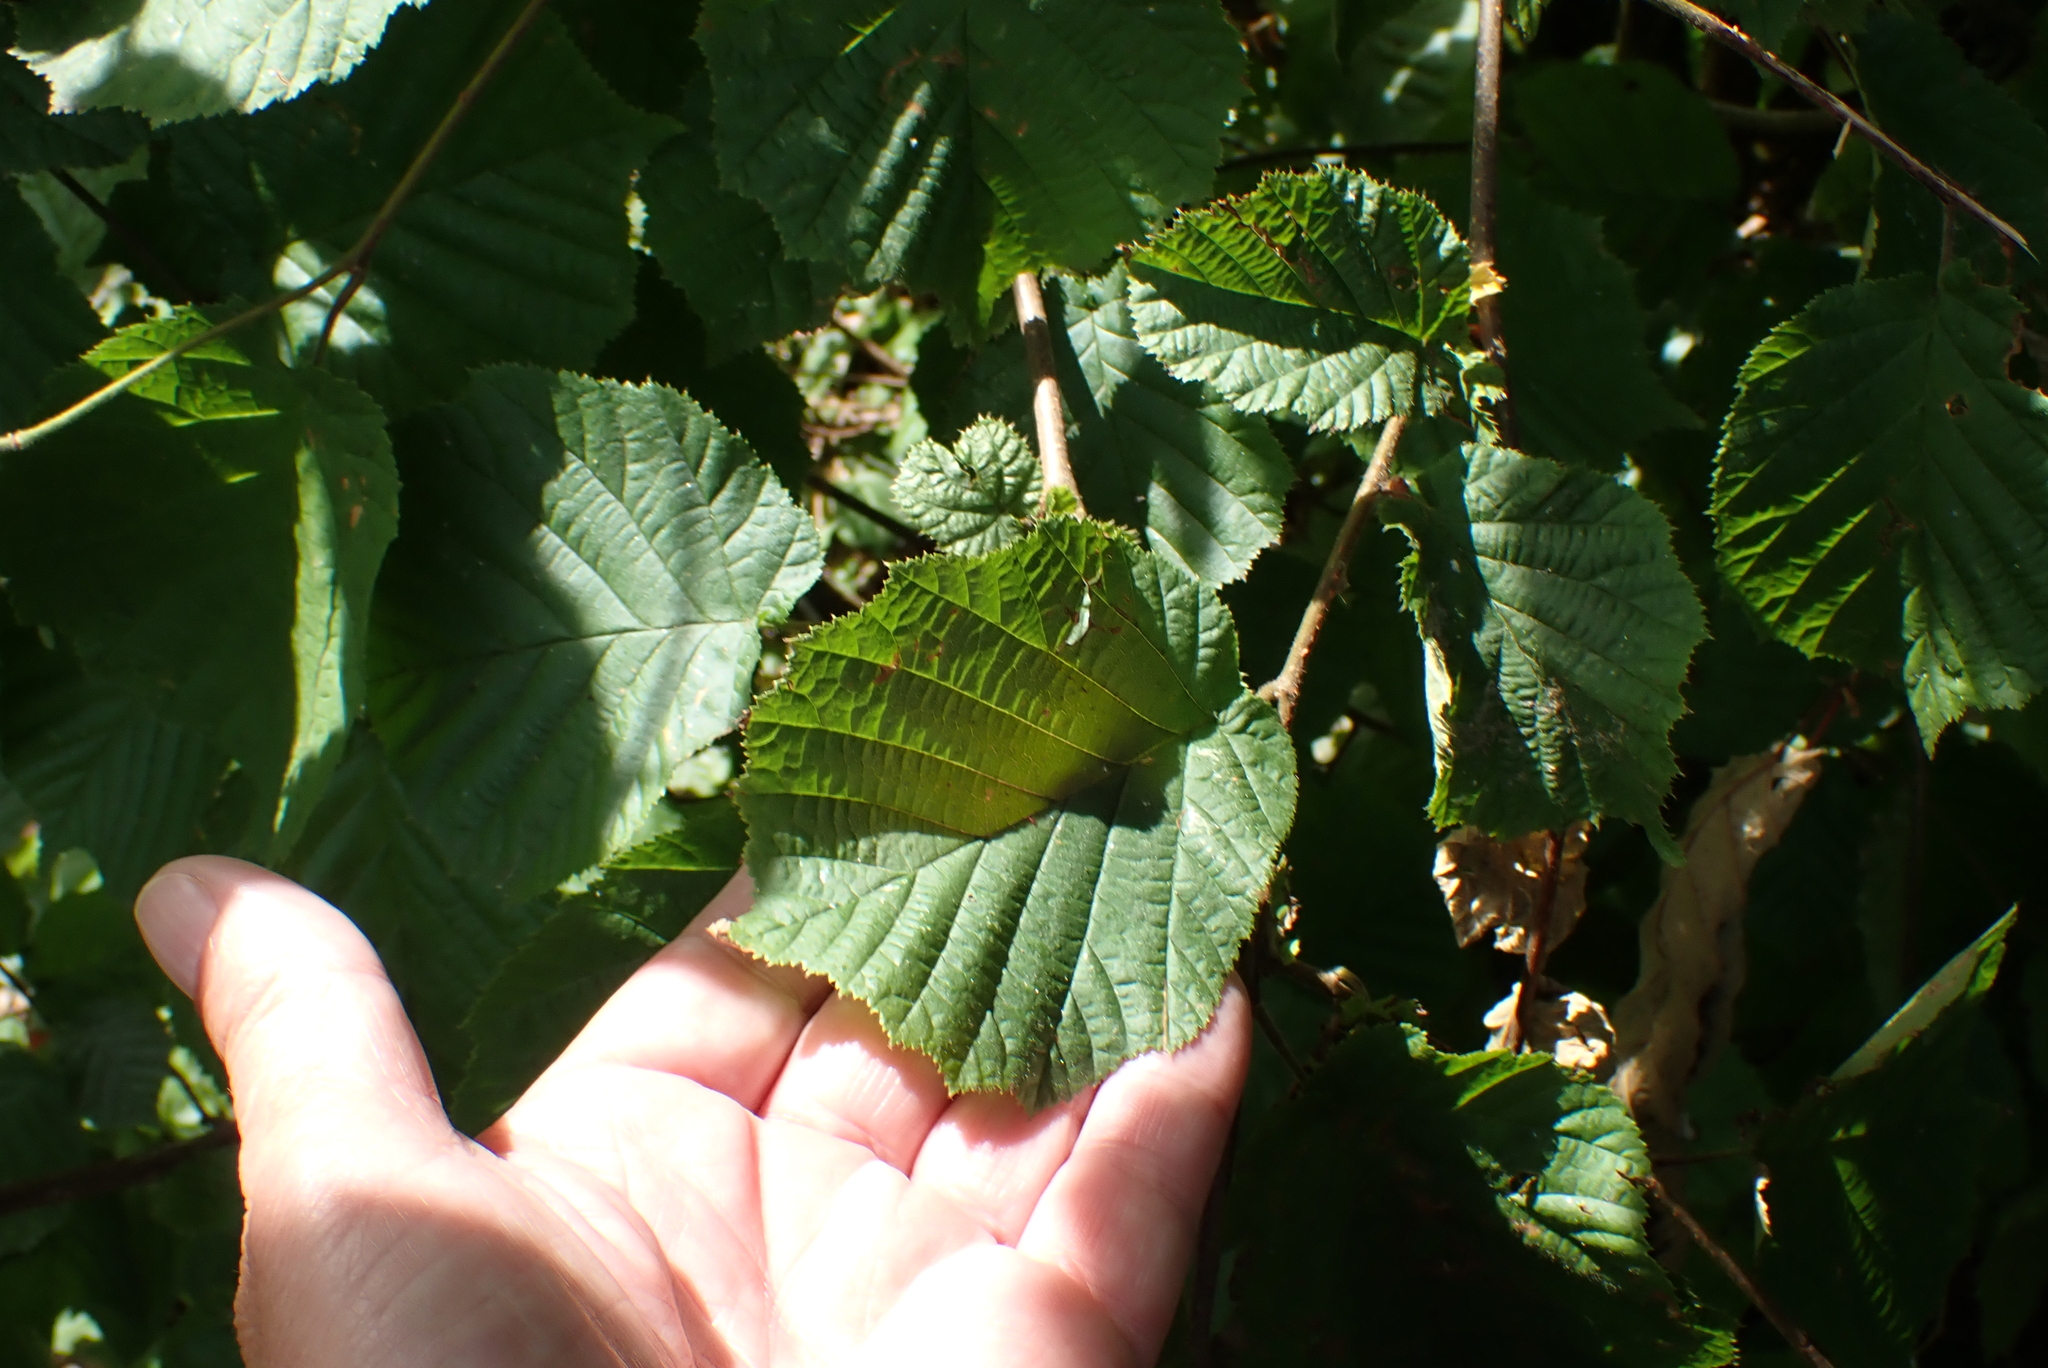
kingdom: Plantae
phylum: Tracheophyta
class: Magnoliopsida
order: Fagales
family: Betulaceae
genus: Corylus
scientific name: Corylus avellana
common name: European hazel
